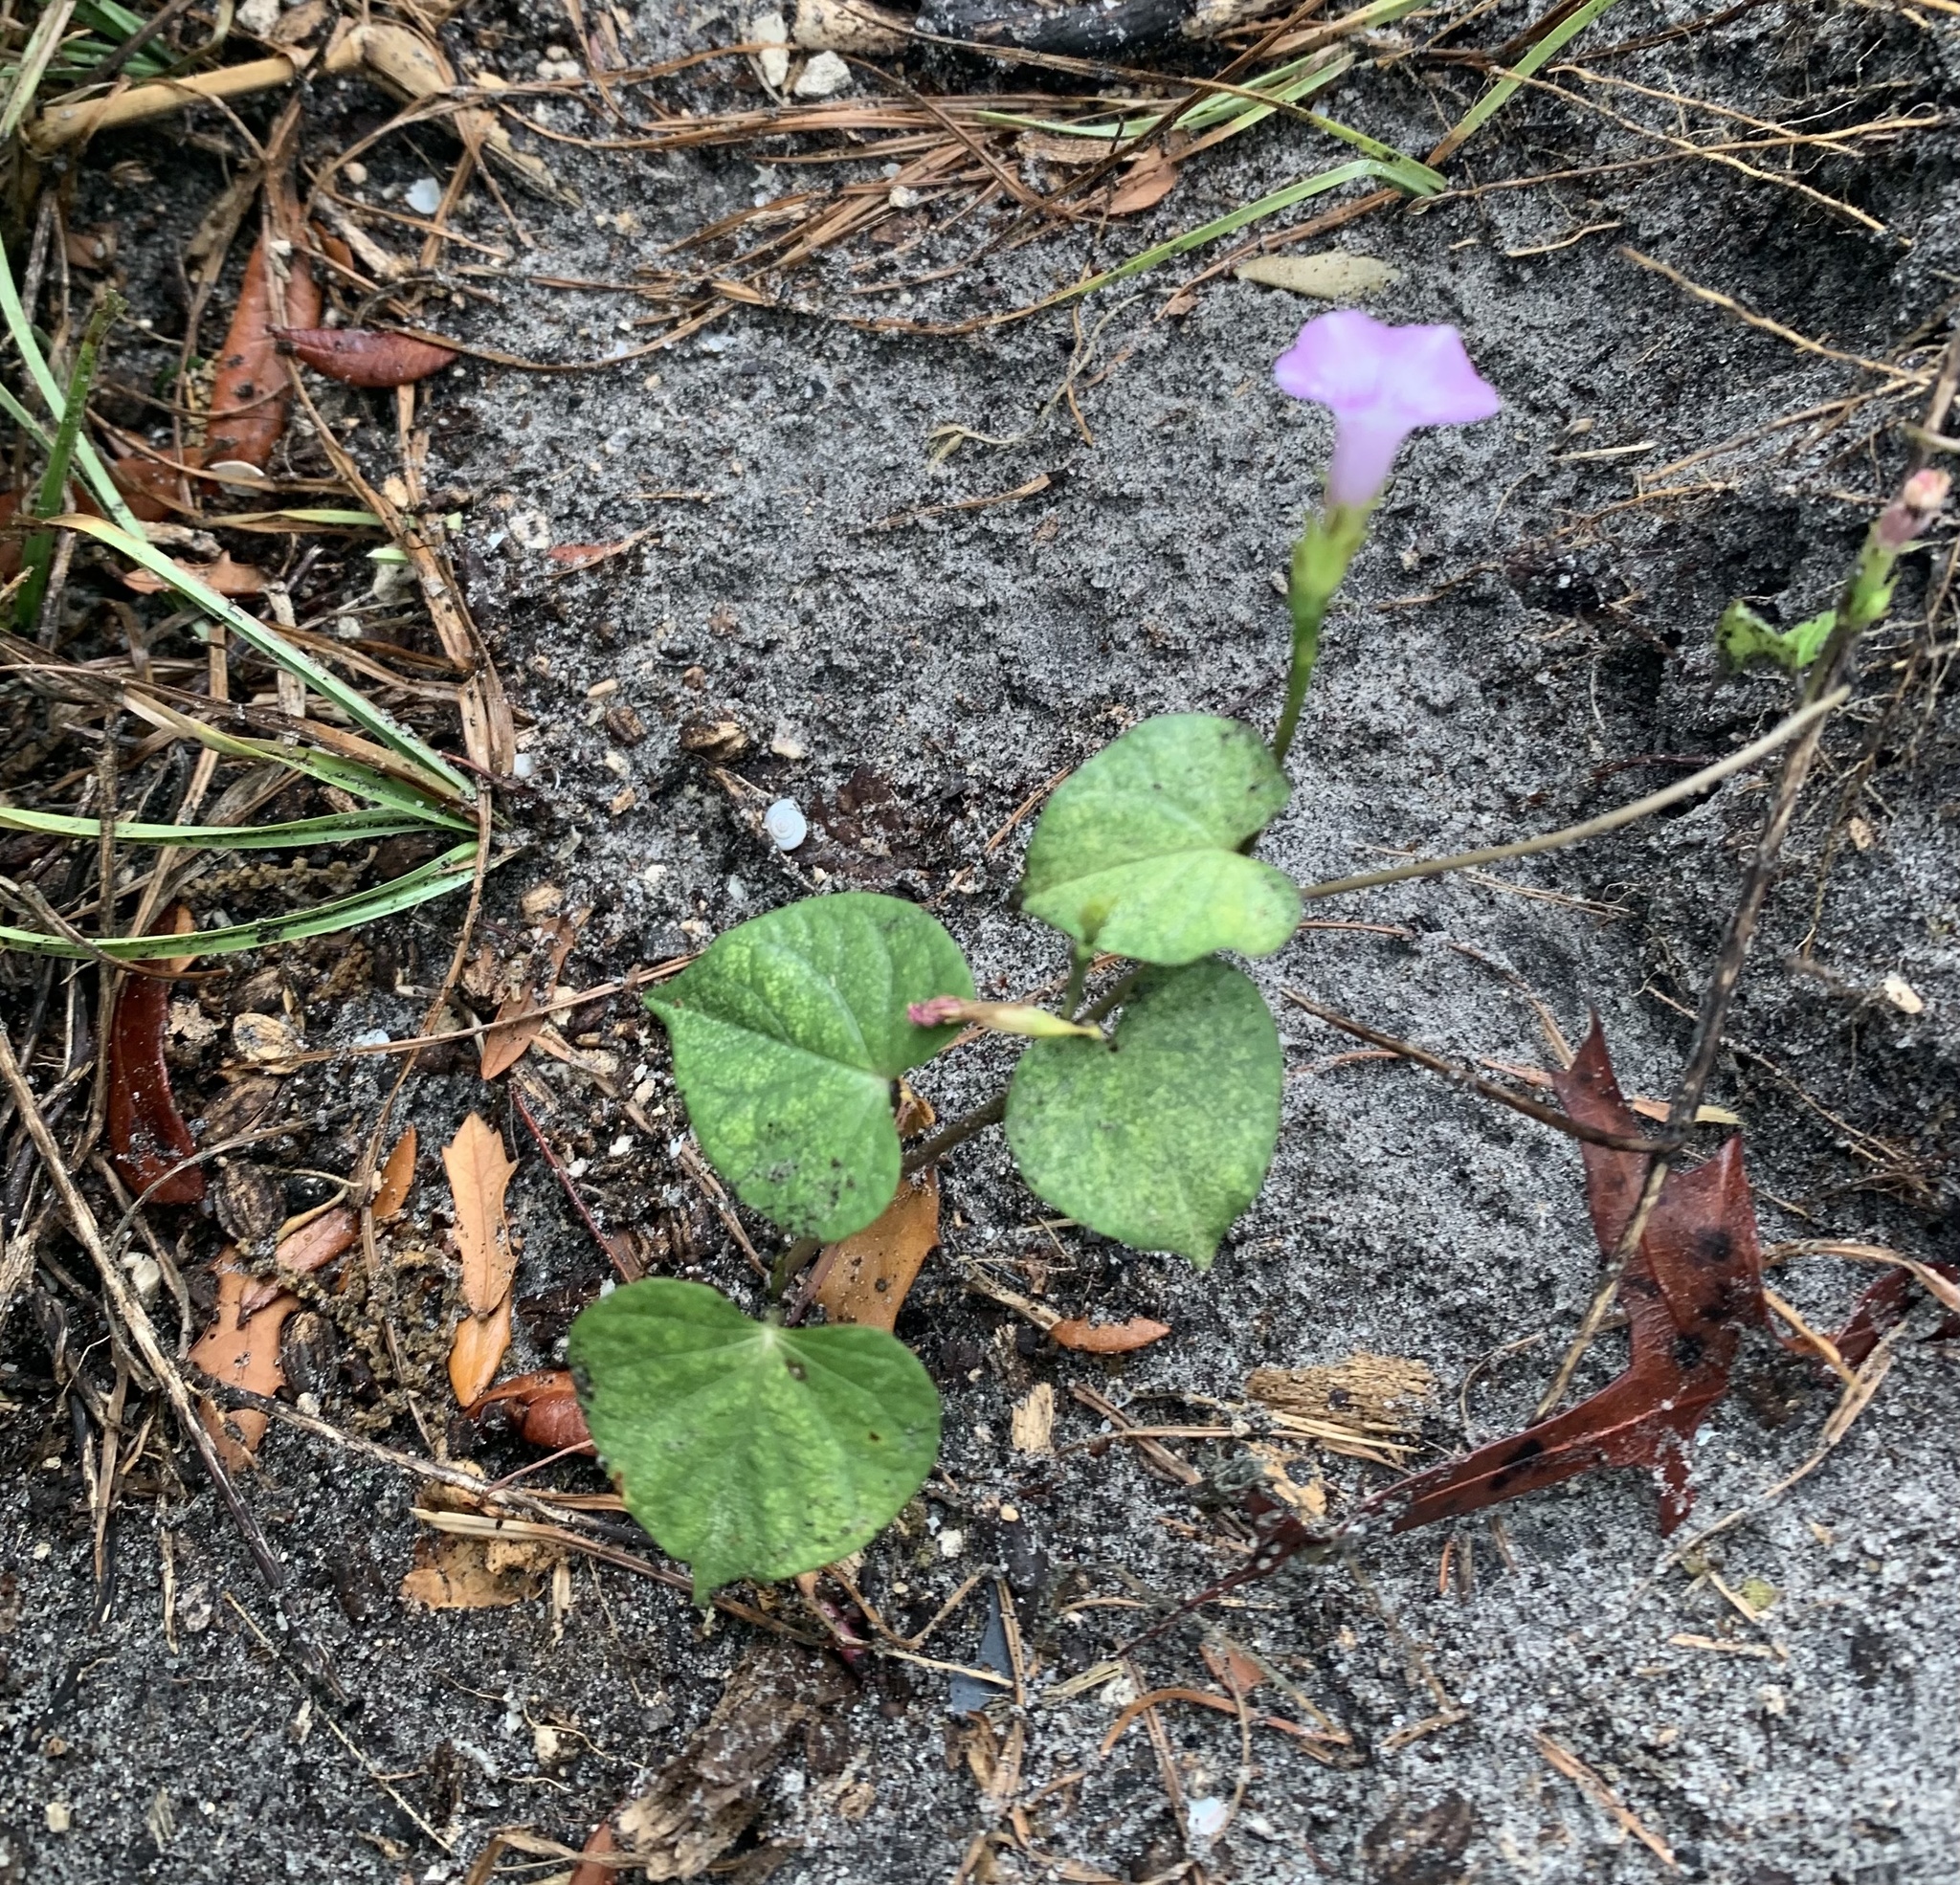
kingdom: Plantae
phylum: Tracheophyta
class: Magnoliopsida
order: Solanales
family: Convolvulaceae
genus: Ipomoea
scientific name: Ipomoea triloba
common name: Little-bell
